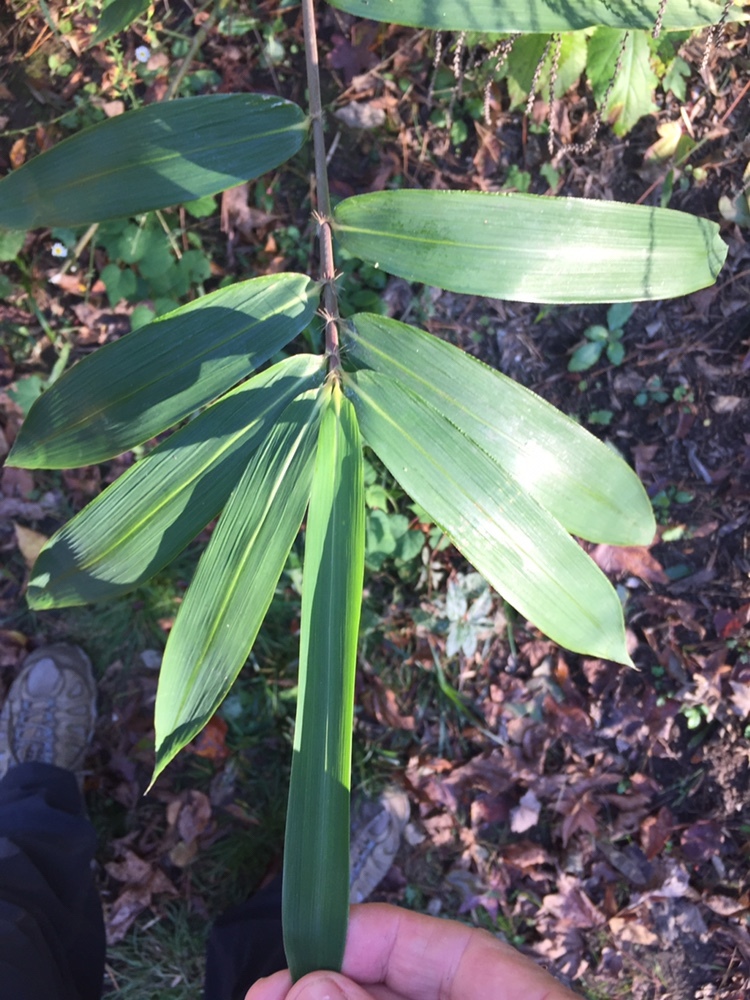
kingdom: Plantae
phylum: Tracheophyta
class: Liliopsida
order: Poales
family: Poaceae
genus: Arundinaria
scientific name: Arundinaria tecta
